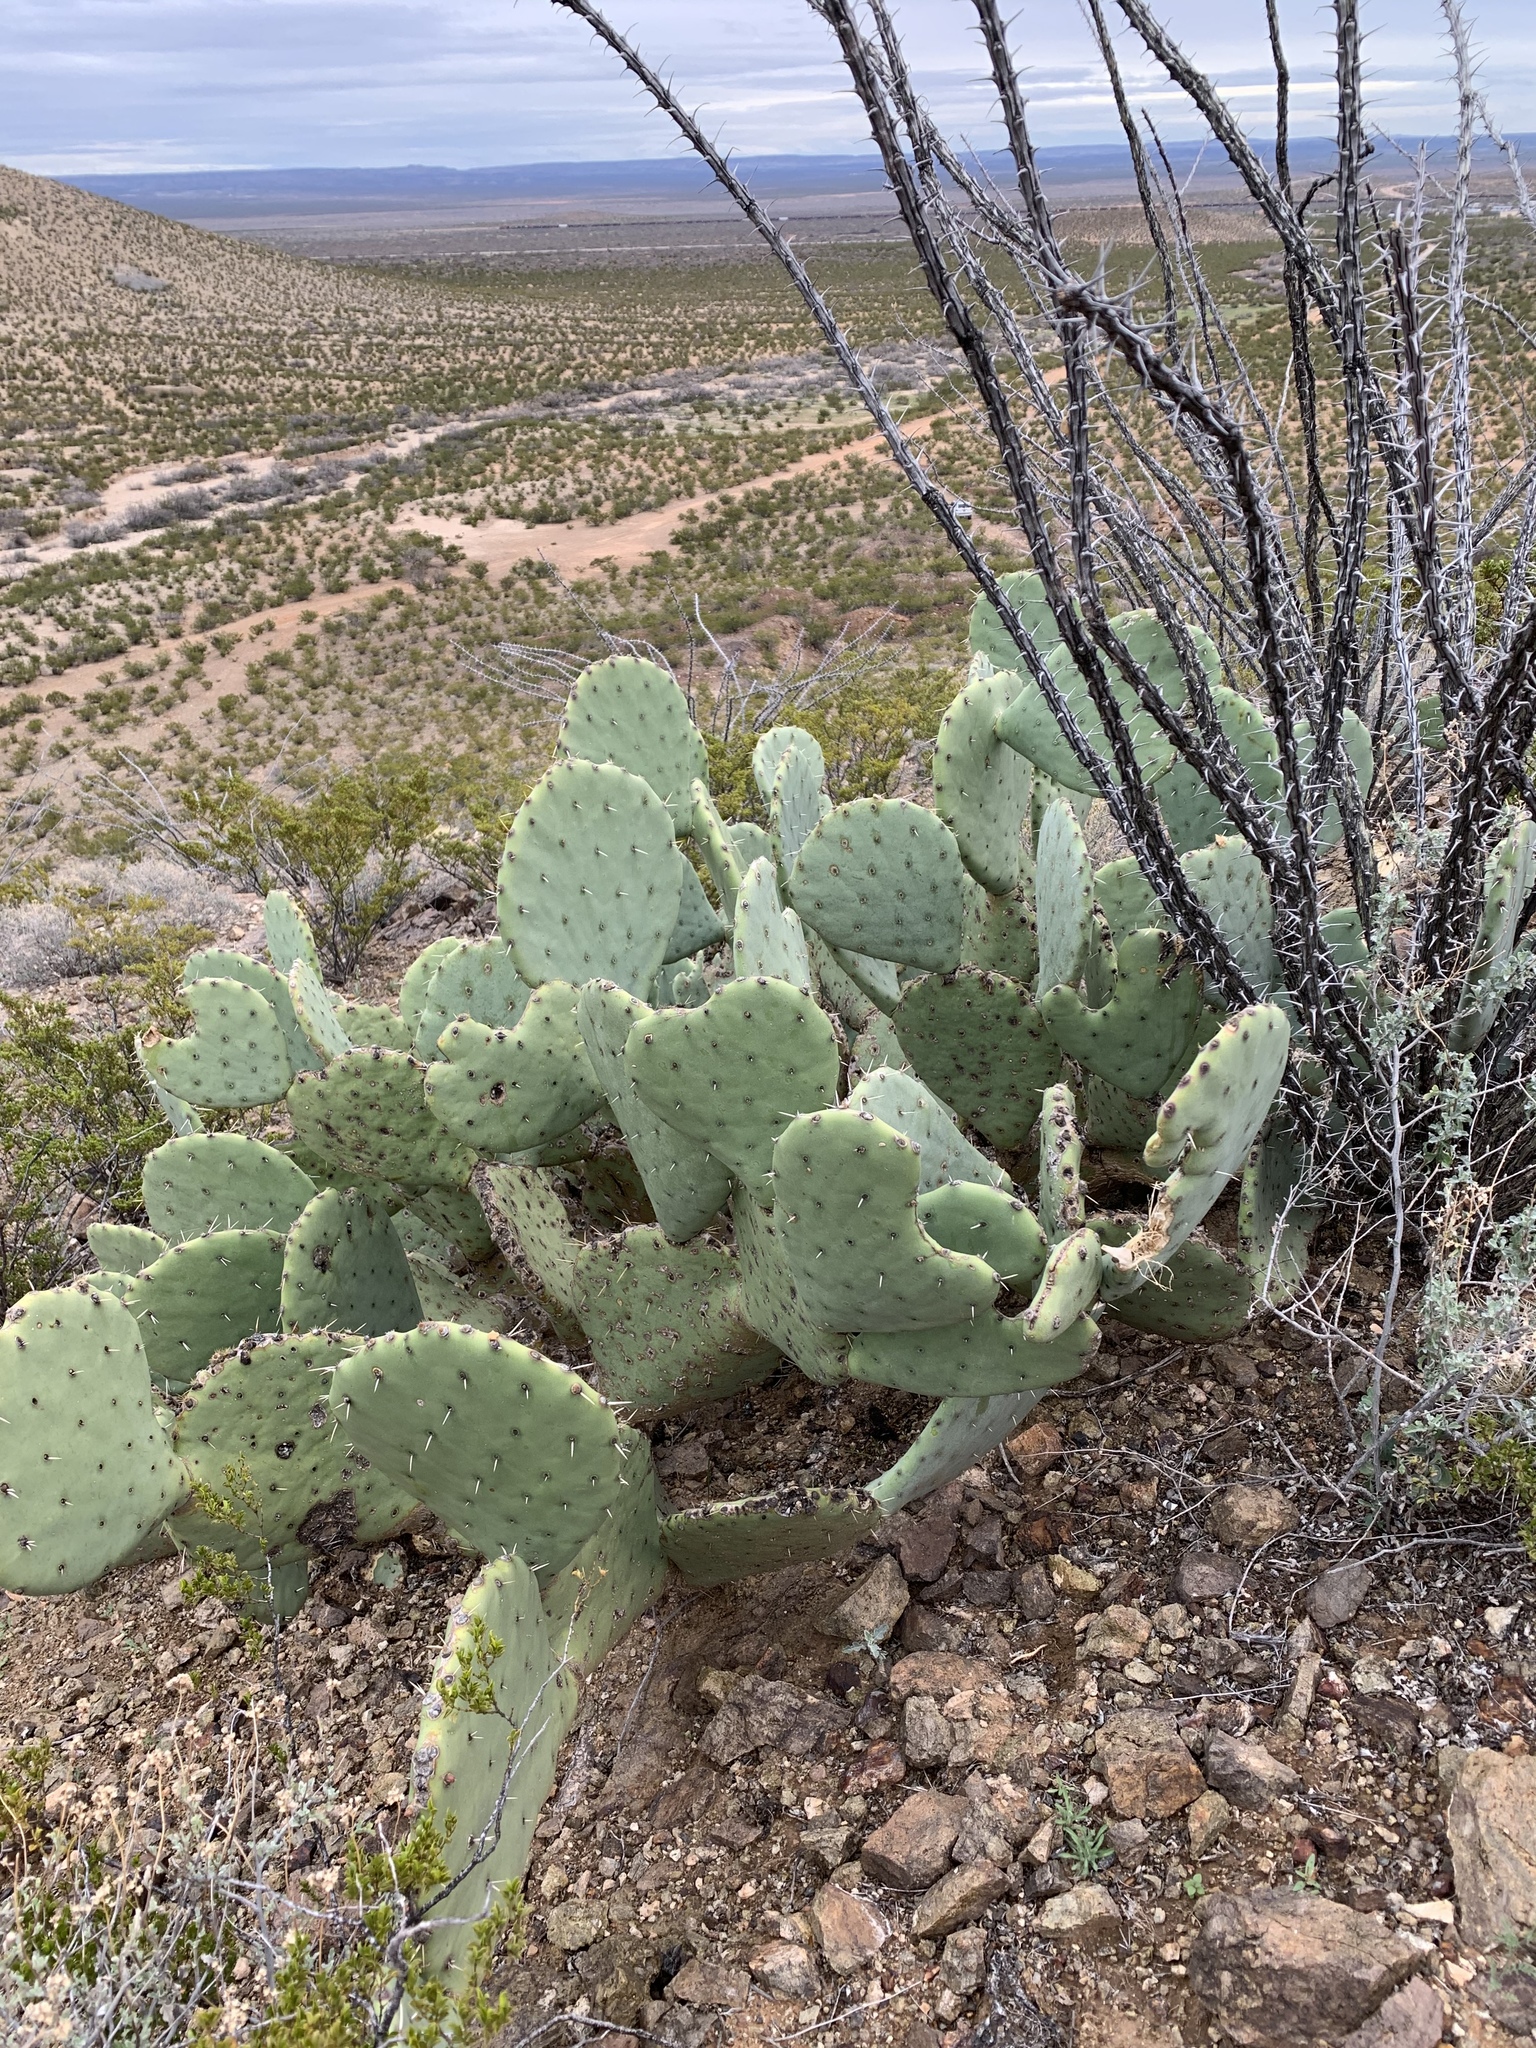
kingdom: Plantae
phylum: Tracheophyta
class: Magnoliopsida
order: Caryophyllales
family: Cactaceae
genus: Opuntia
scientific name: Opuntia engelmannii
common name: Cactus-apple
